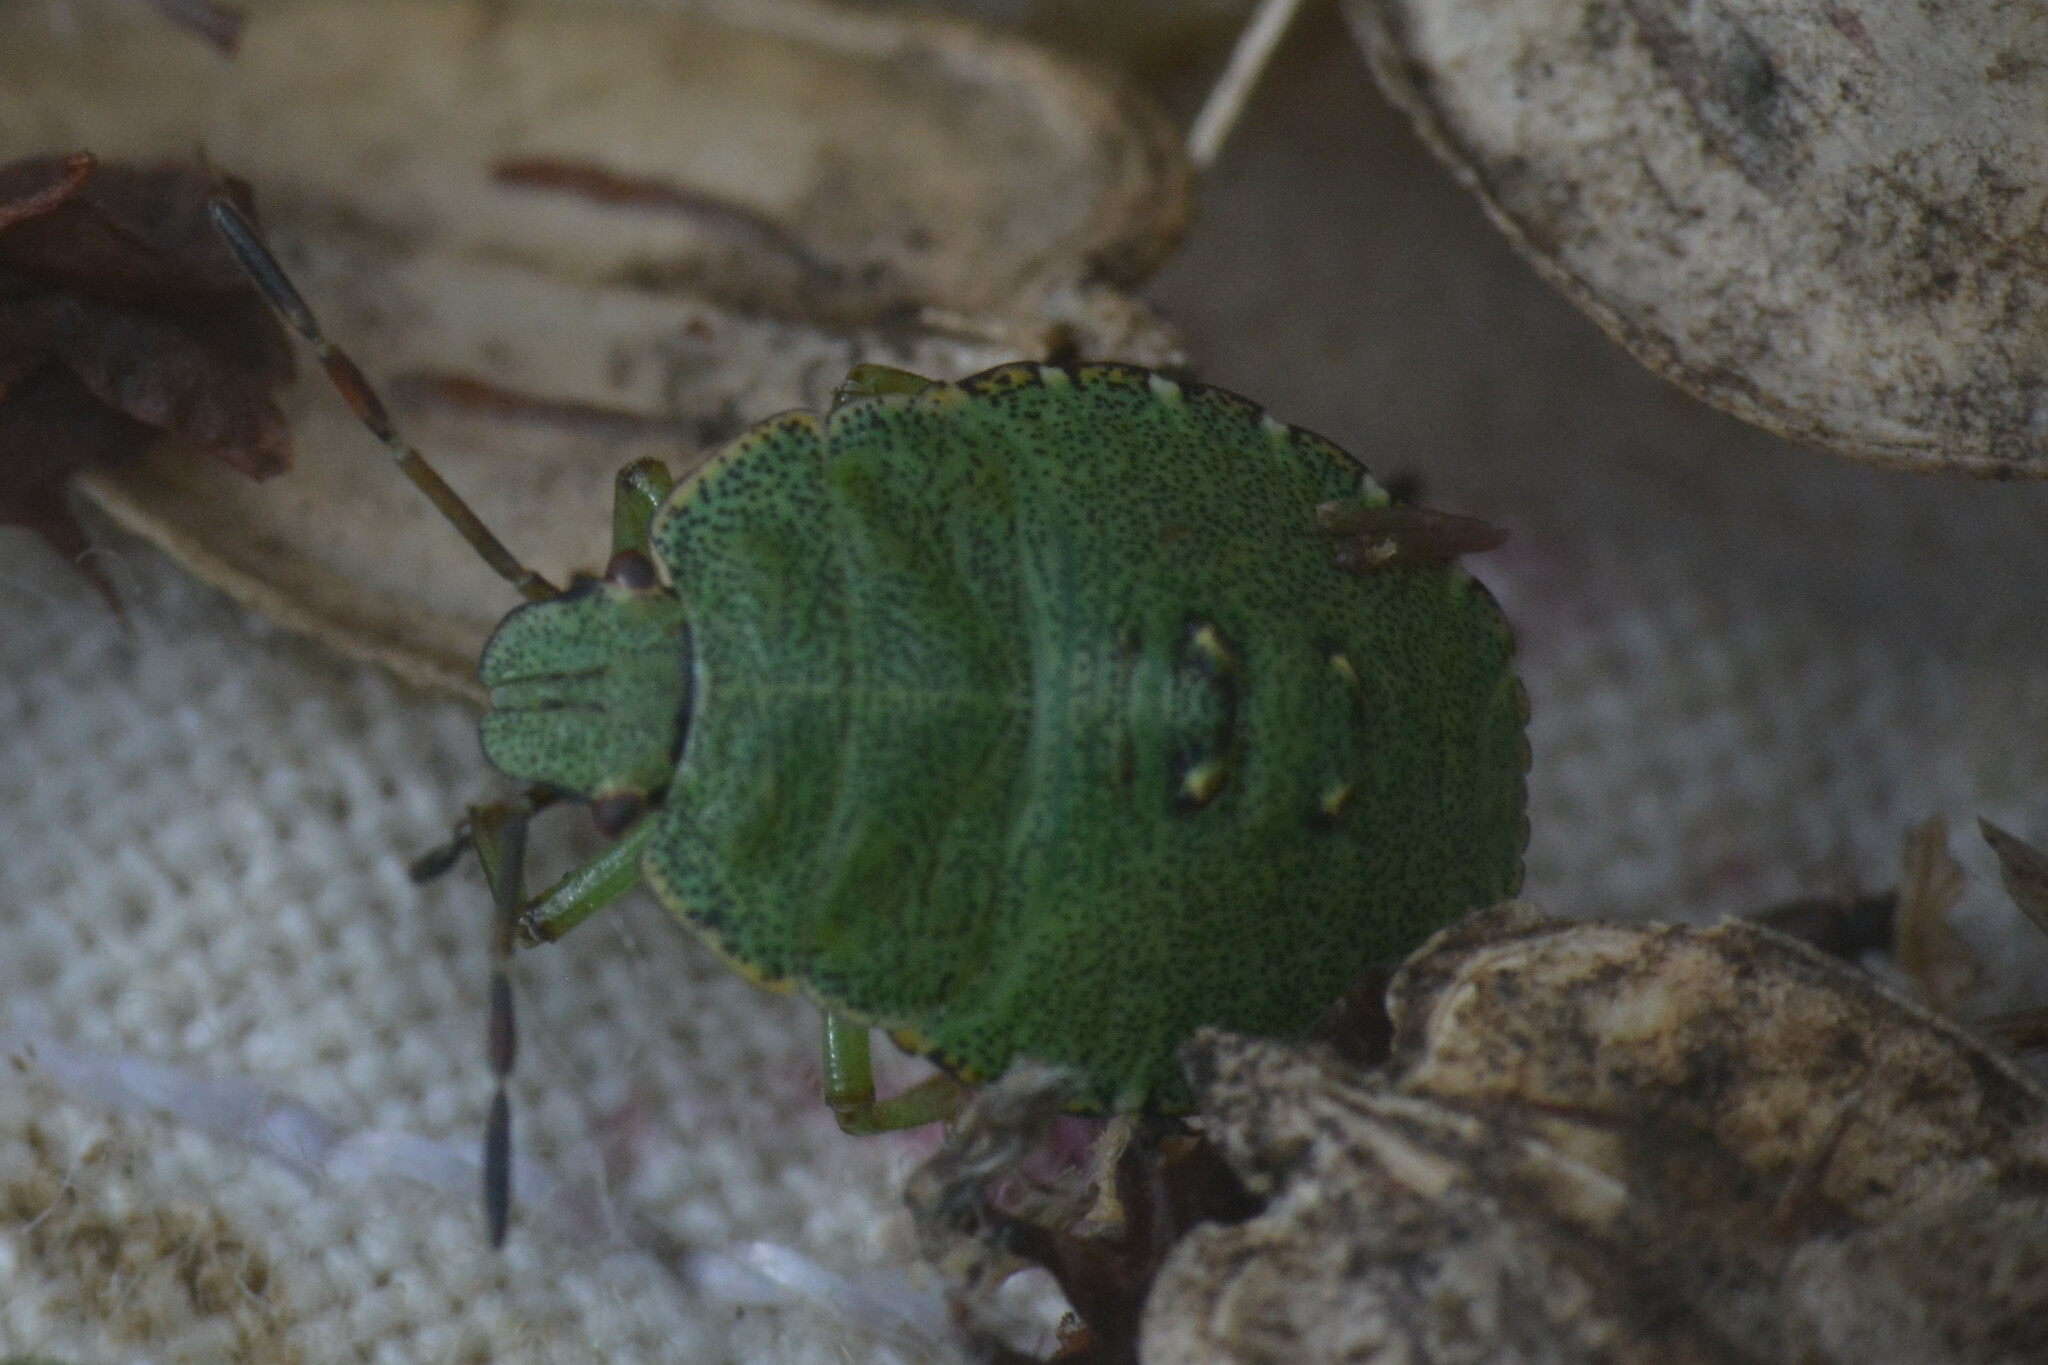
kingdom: Animalia
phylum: Arthropoda
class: Insecta
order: Hemiptera
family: Pentatomidae
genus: Palomena
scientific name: Palomena prasina
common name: Green shieldbug
